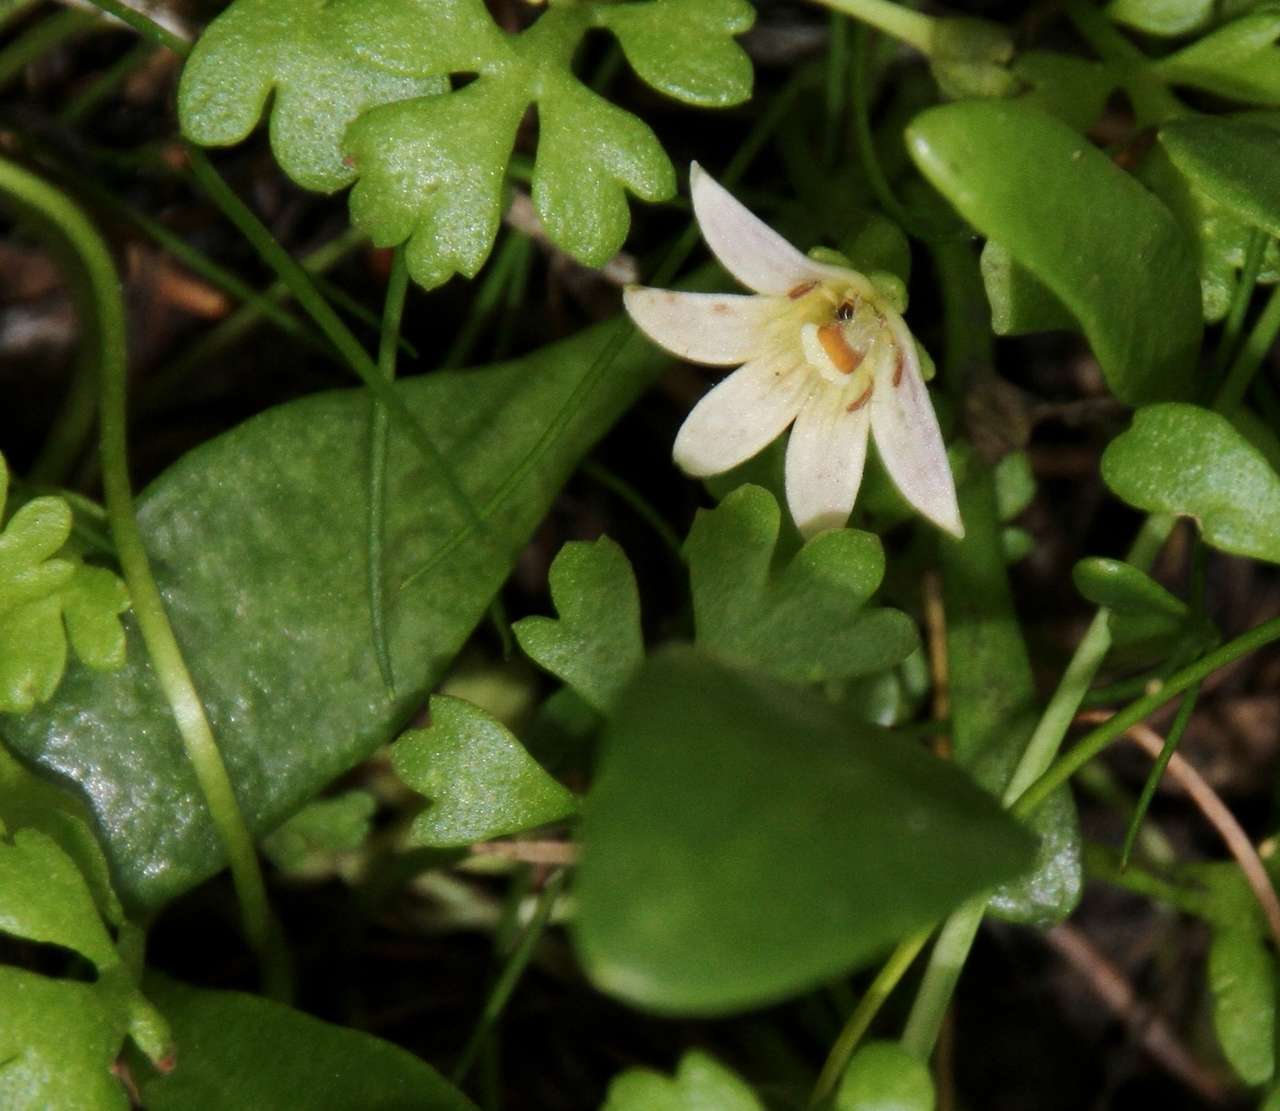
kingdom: Plantae
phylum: Tracheophyta
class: Magnoliopsida
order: Asterales
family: Goodeniaceae
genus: Goodenia
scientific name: Goodenia radicans
